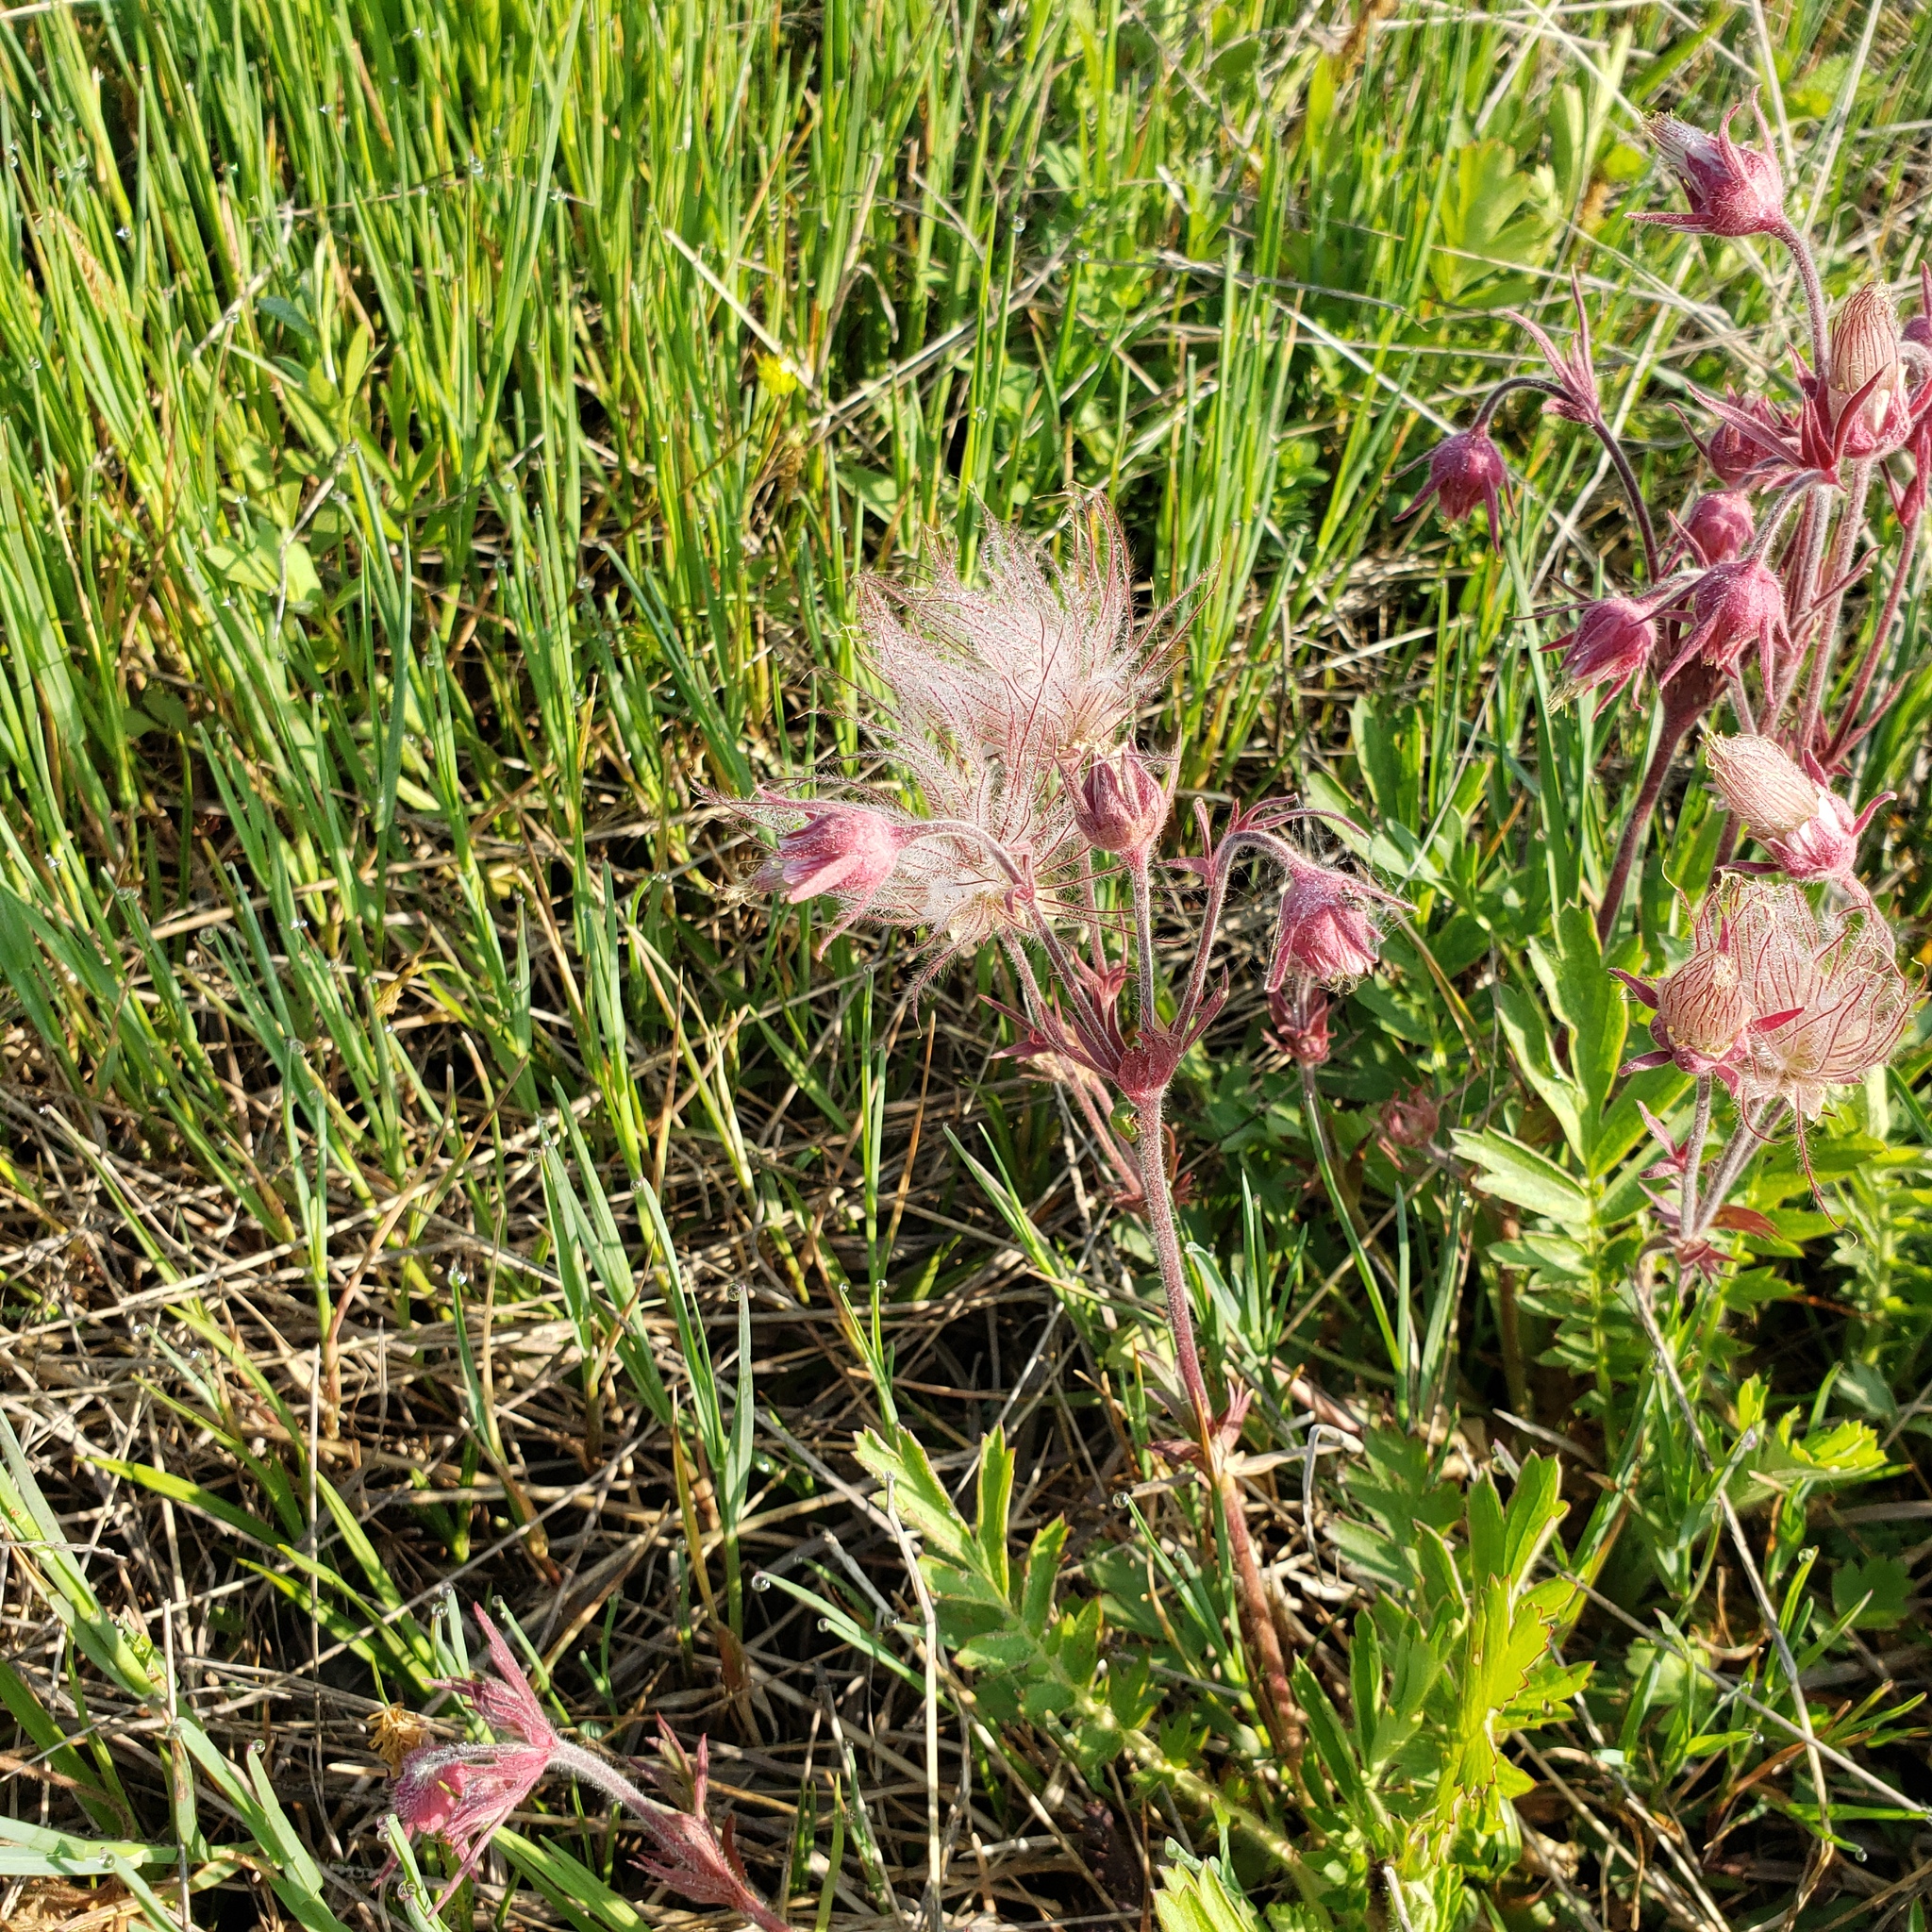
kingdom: Plantae
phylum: Tracheophyta
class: Magnoliopsida
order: Rosales
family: Rosaceae
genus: Geum
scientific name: Geum triflorum
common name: Old man's whiskers
